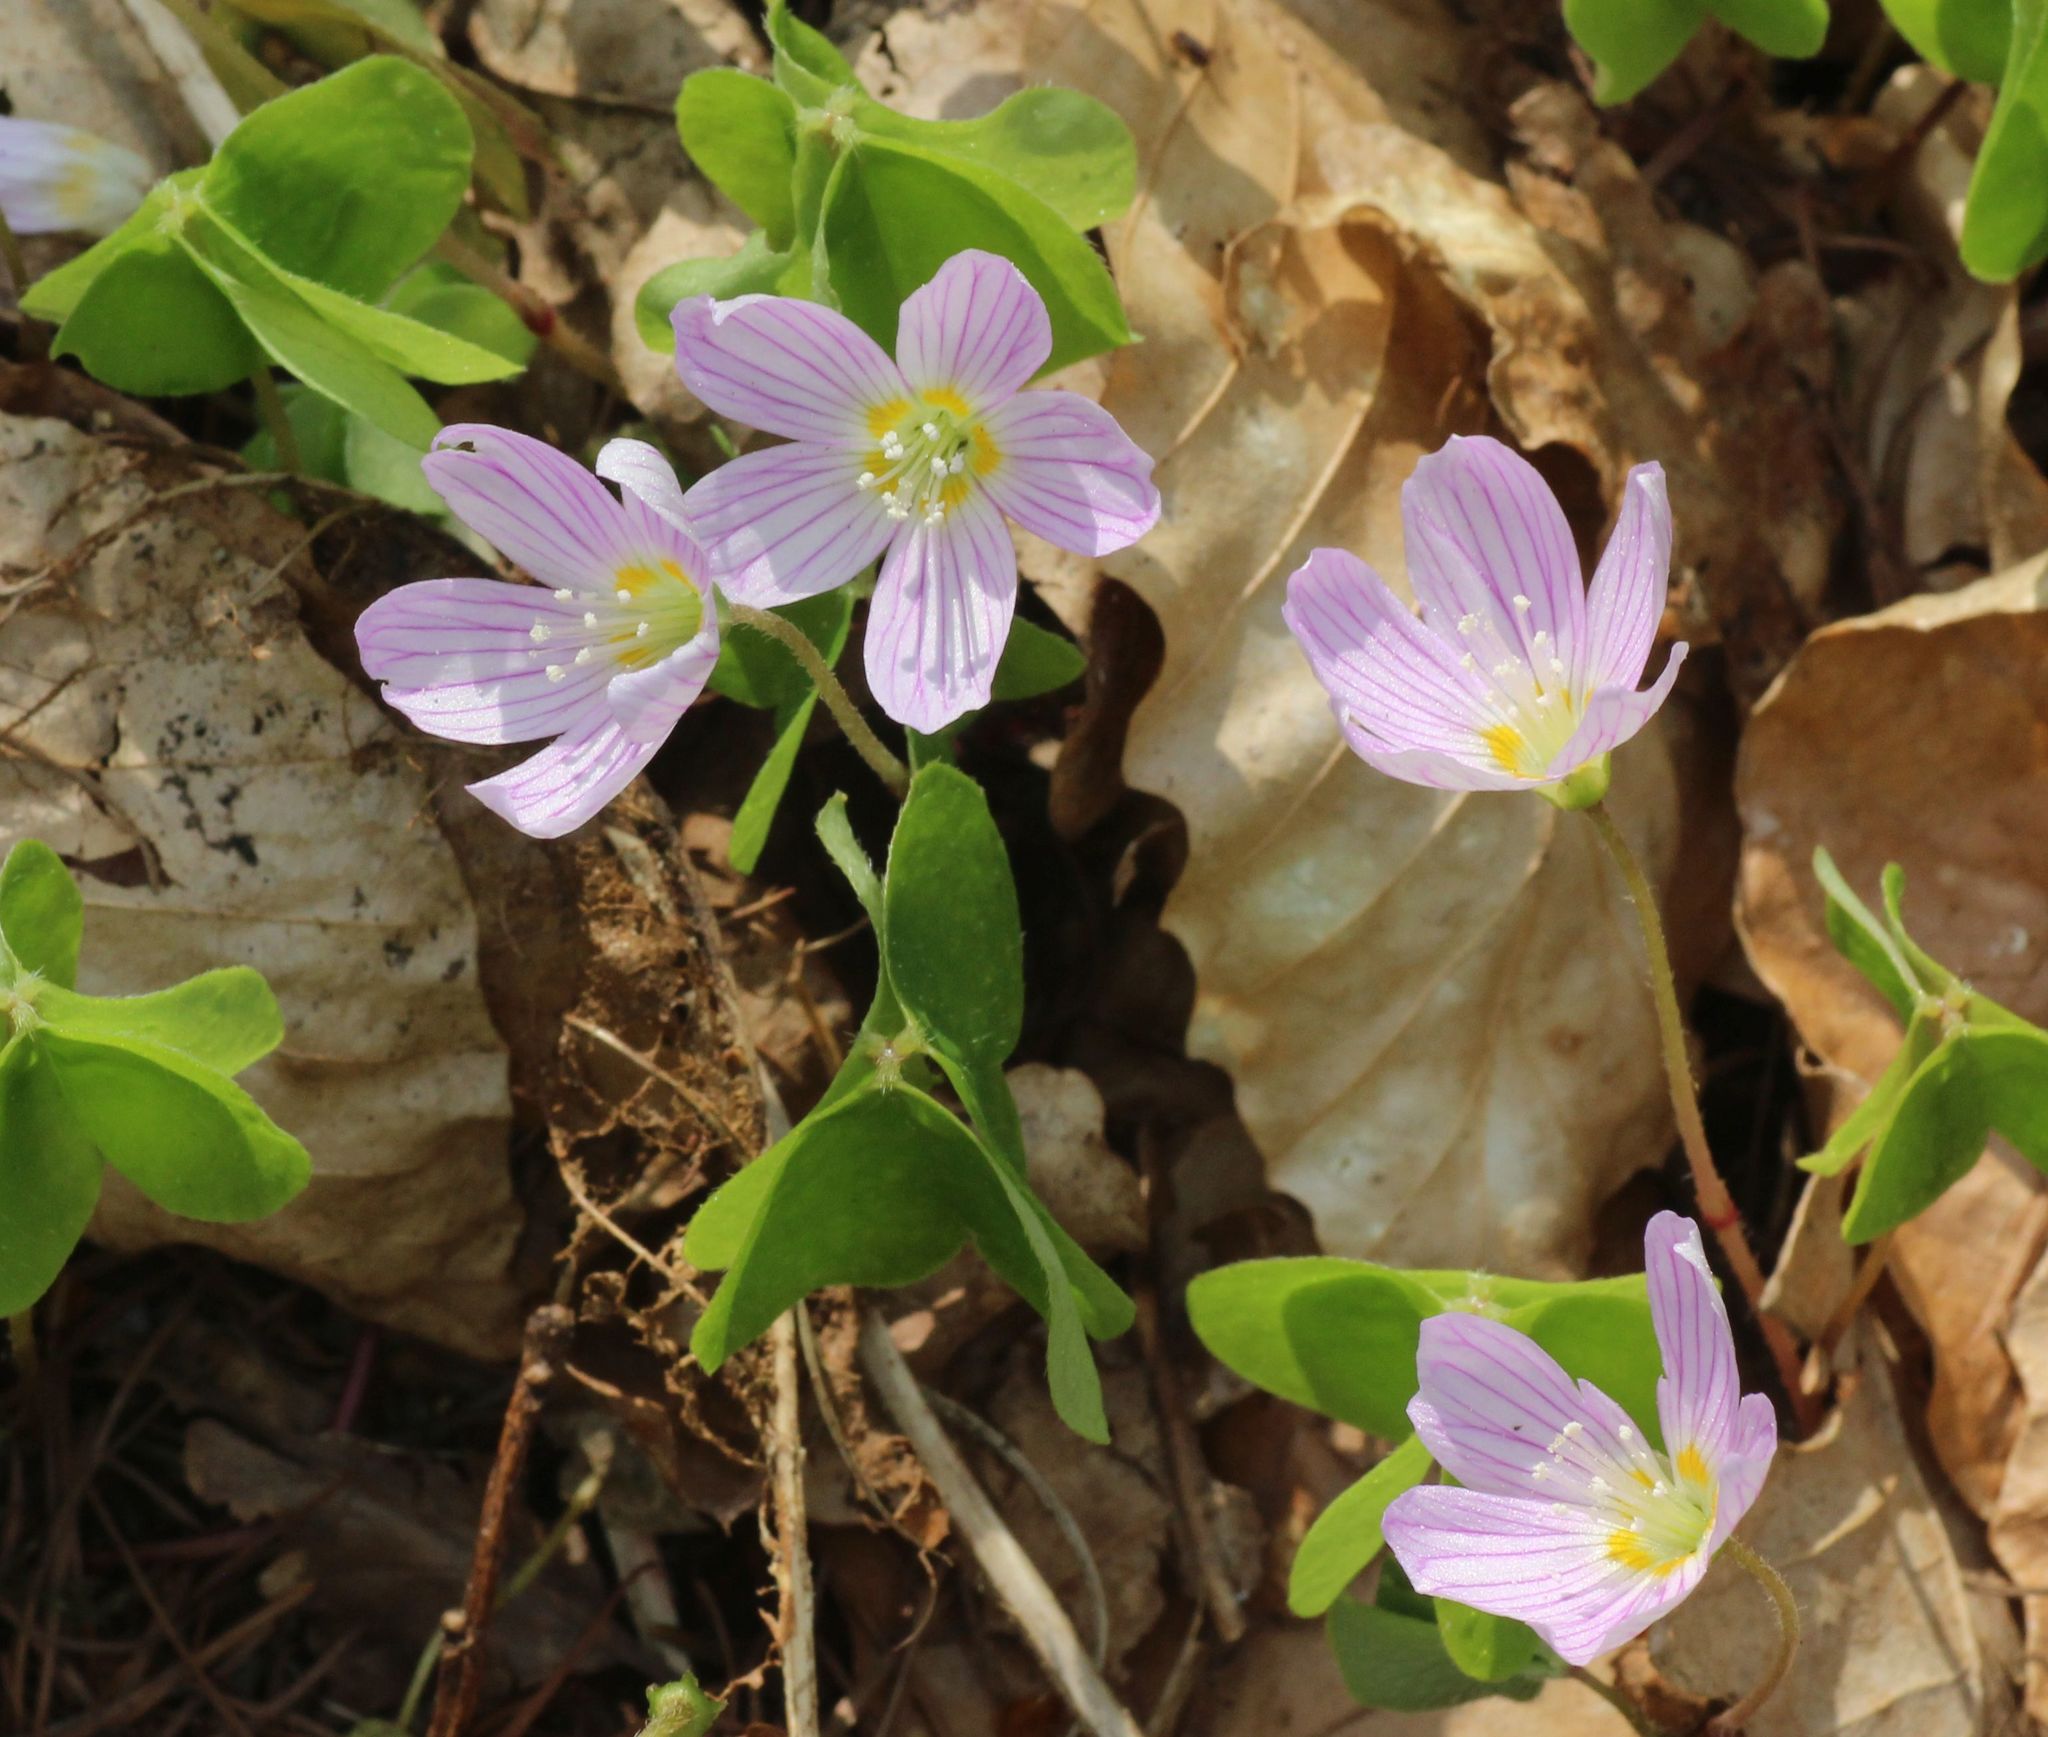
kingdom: Plantae
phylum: Tracheophyta
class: Magnoliopsida
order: Oxalidales
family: Oxalidaceae
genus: Oxalis
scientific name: Oxalis acetosella
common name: Wood-sorrel
